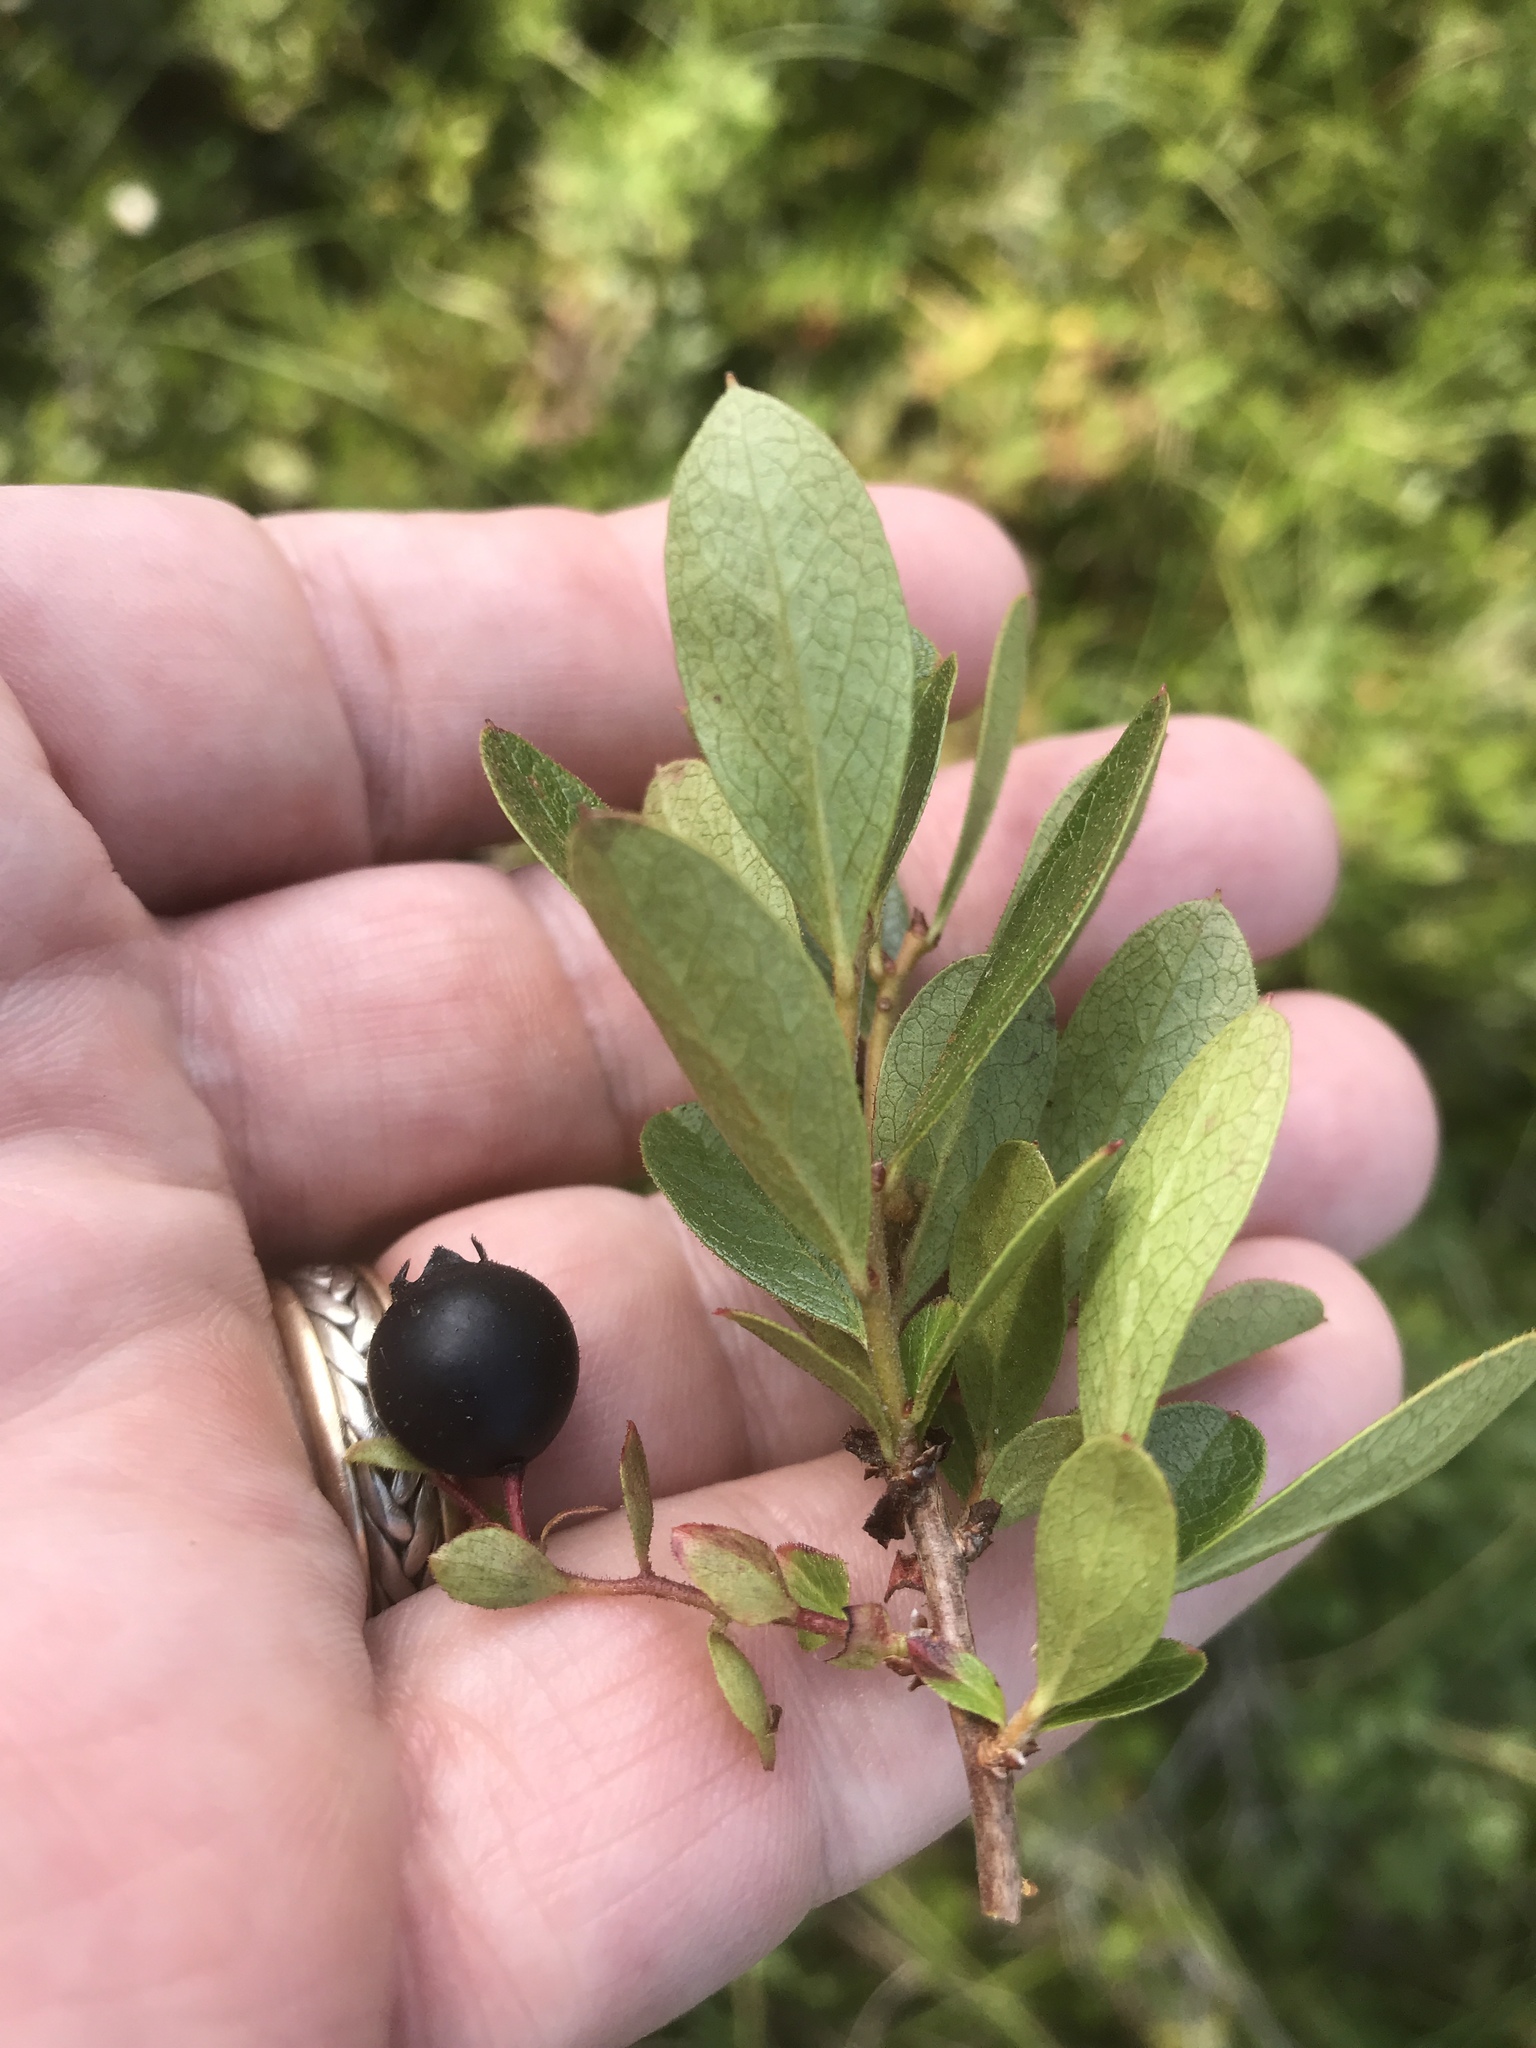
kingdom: Plantae
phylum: Tracheophyta
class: Magnoliopsida
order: Ericales
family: Ericaceae
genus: Gaylussacia
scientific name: Gaylussacia bigeloviana
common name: Bog huckleberry
